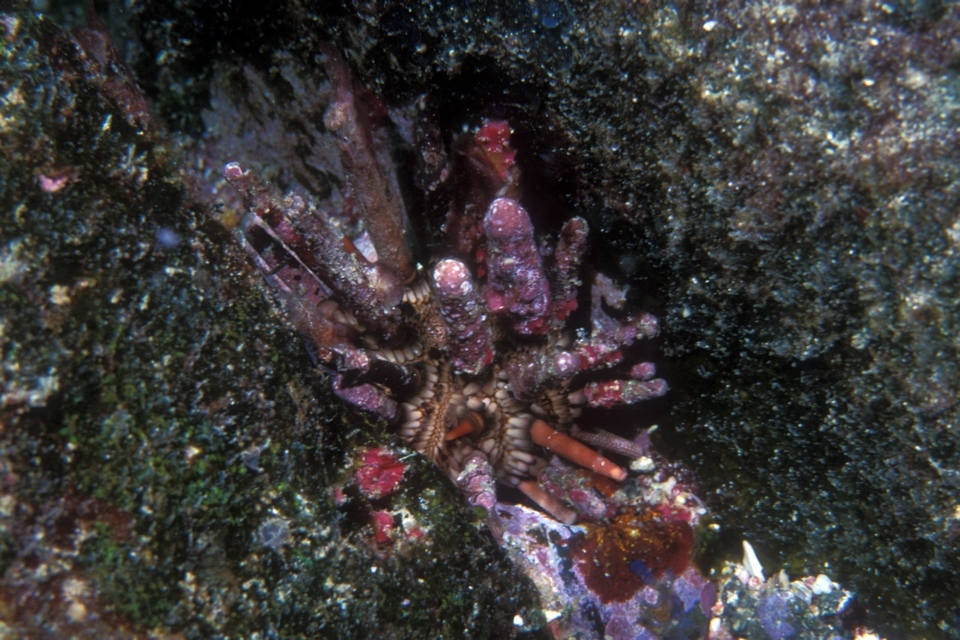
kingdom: Animalia
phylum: Echinodermata
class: Echinoidea
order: Cidaroida
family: Cidaridae
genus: Eucidaris
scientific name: Eucidaris tribuloides
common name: Slate pencil urchin
